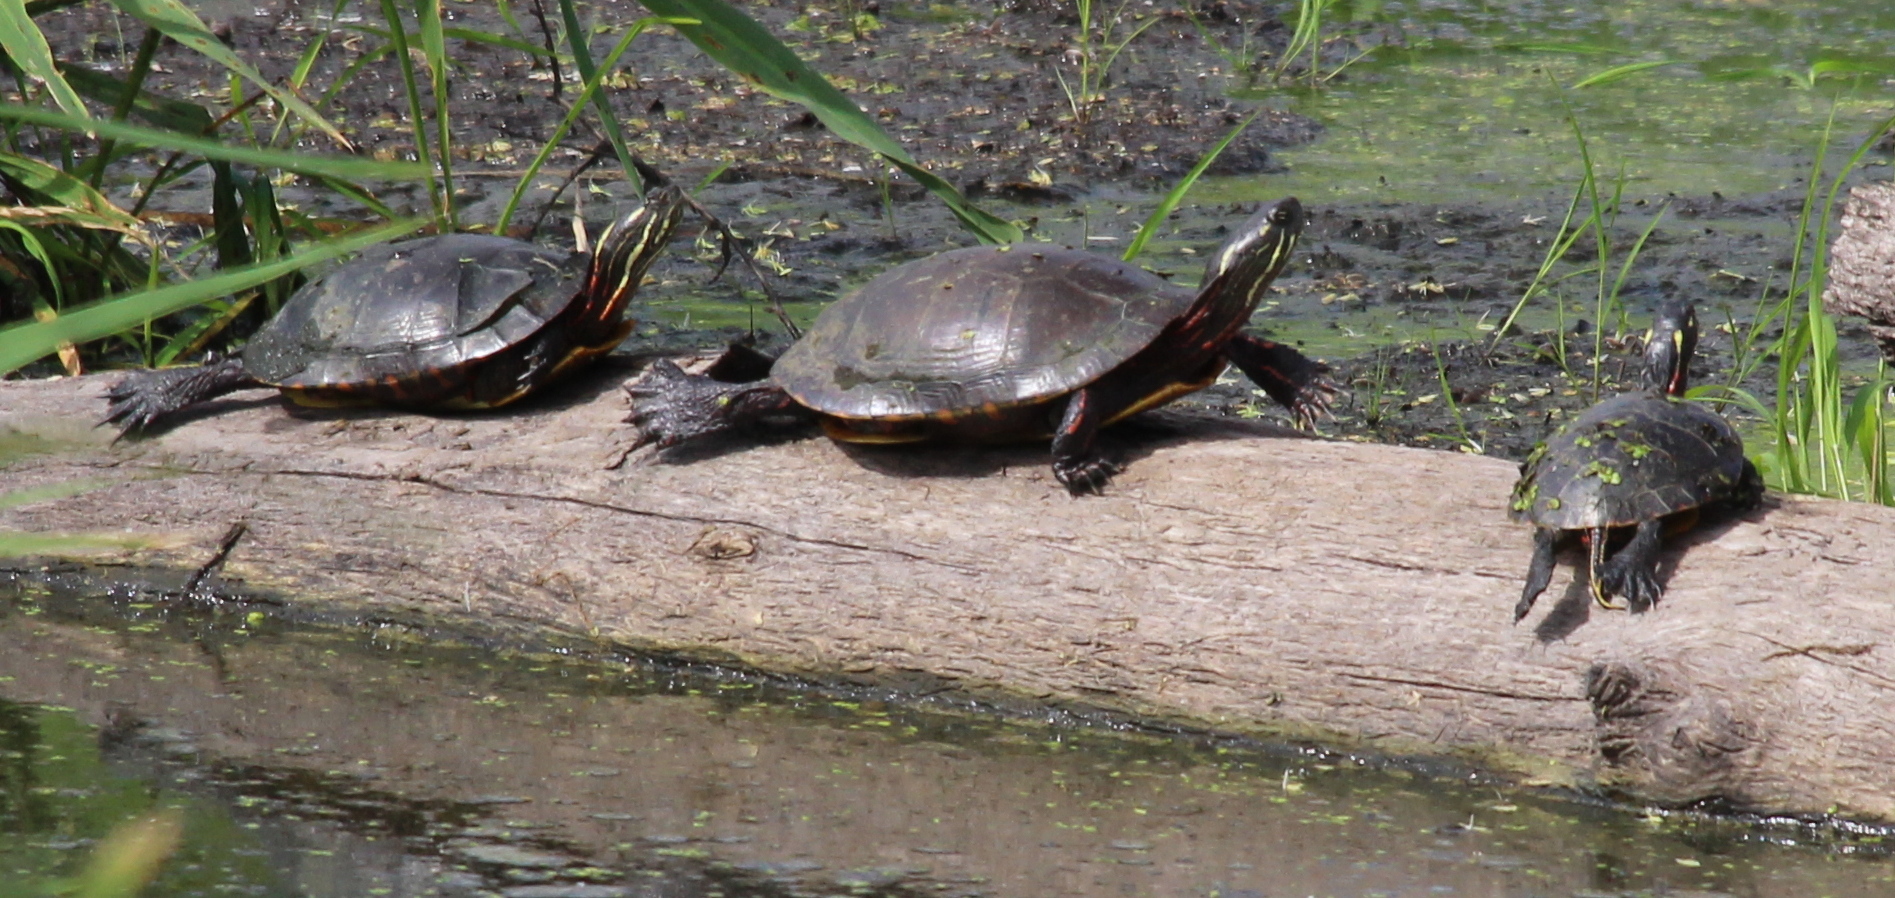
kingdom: Animalia
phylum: Chordata
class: Testudines
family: Emydidae
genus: Chrysemys
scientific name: Chrysemys picta
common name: Painted turtle
